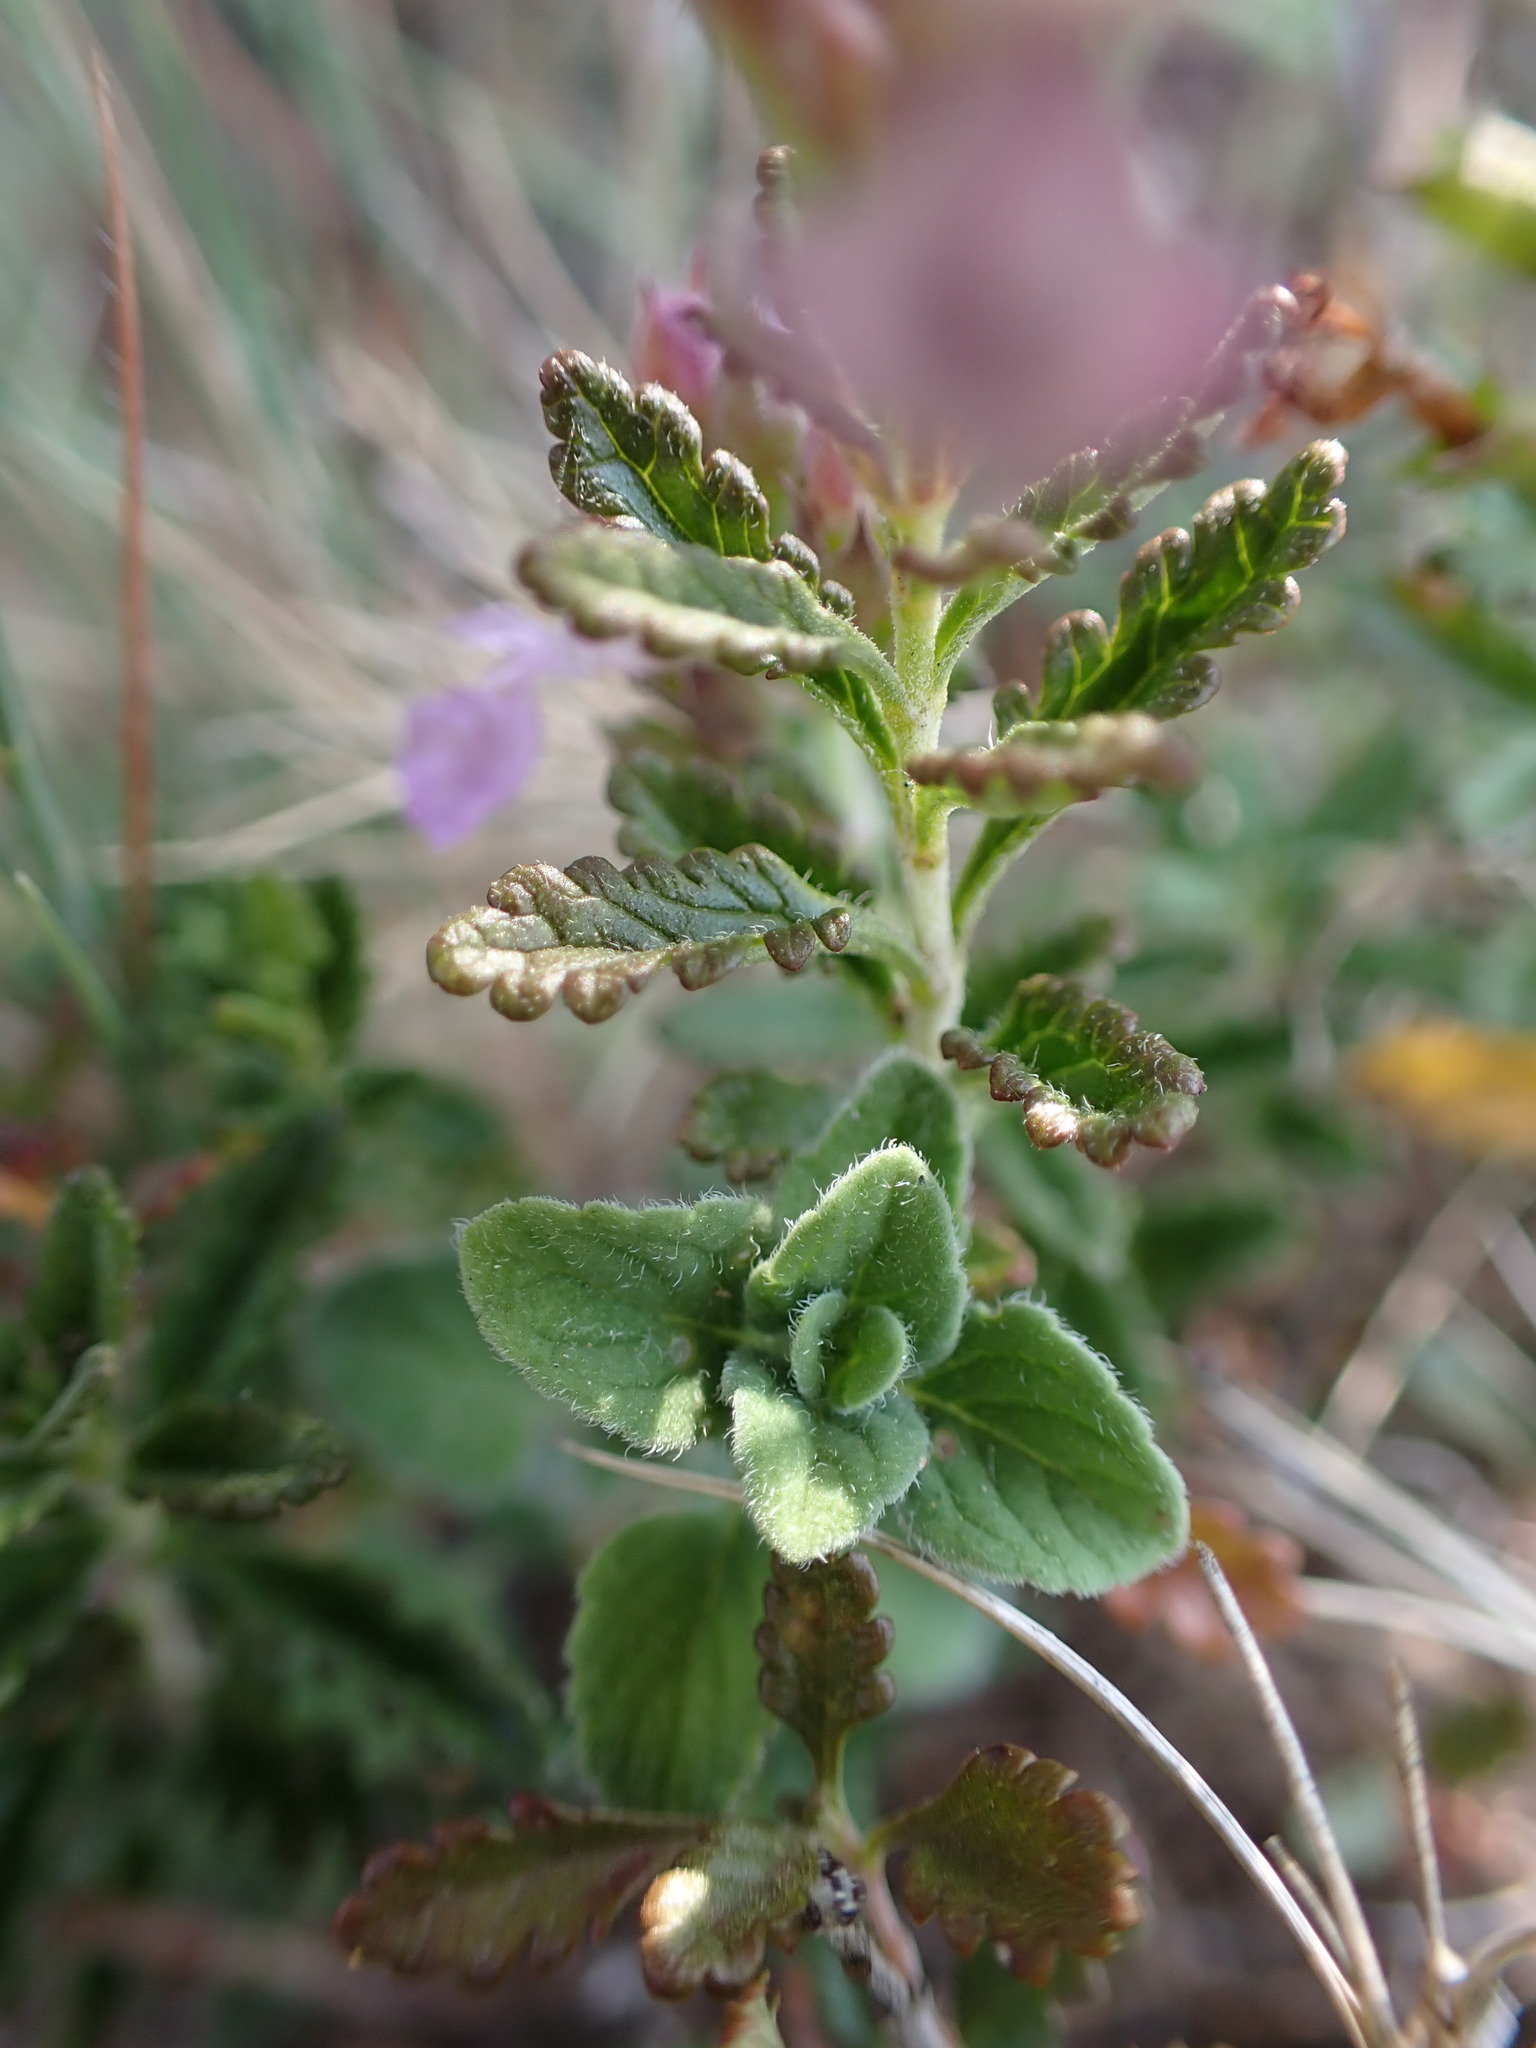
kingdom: Plantae
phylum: Tracheophyta
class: Magnoliopsida
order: Lamiales
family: Lamiaceae
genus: Teucrium
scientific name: Teucrium chamaedrys
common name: Wall germander
